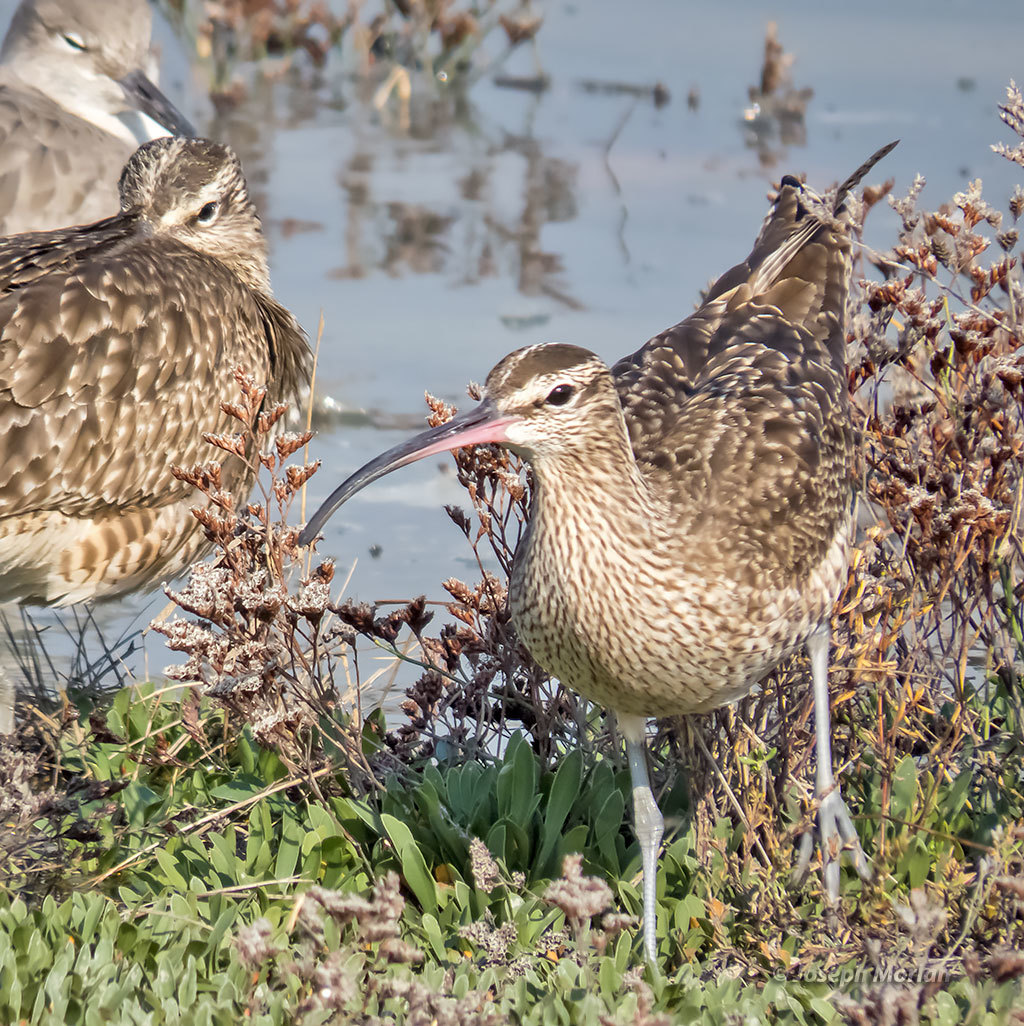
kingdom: Animalia
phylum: Chordata
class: Aves
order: Charadriiformes
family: Scolopacidae
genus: Numenius
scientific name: Numenius phaeopus
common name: Whimbrel
